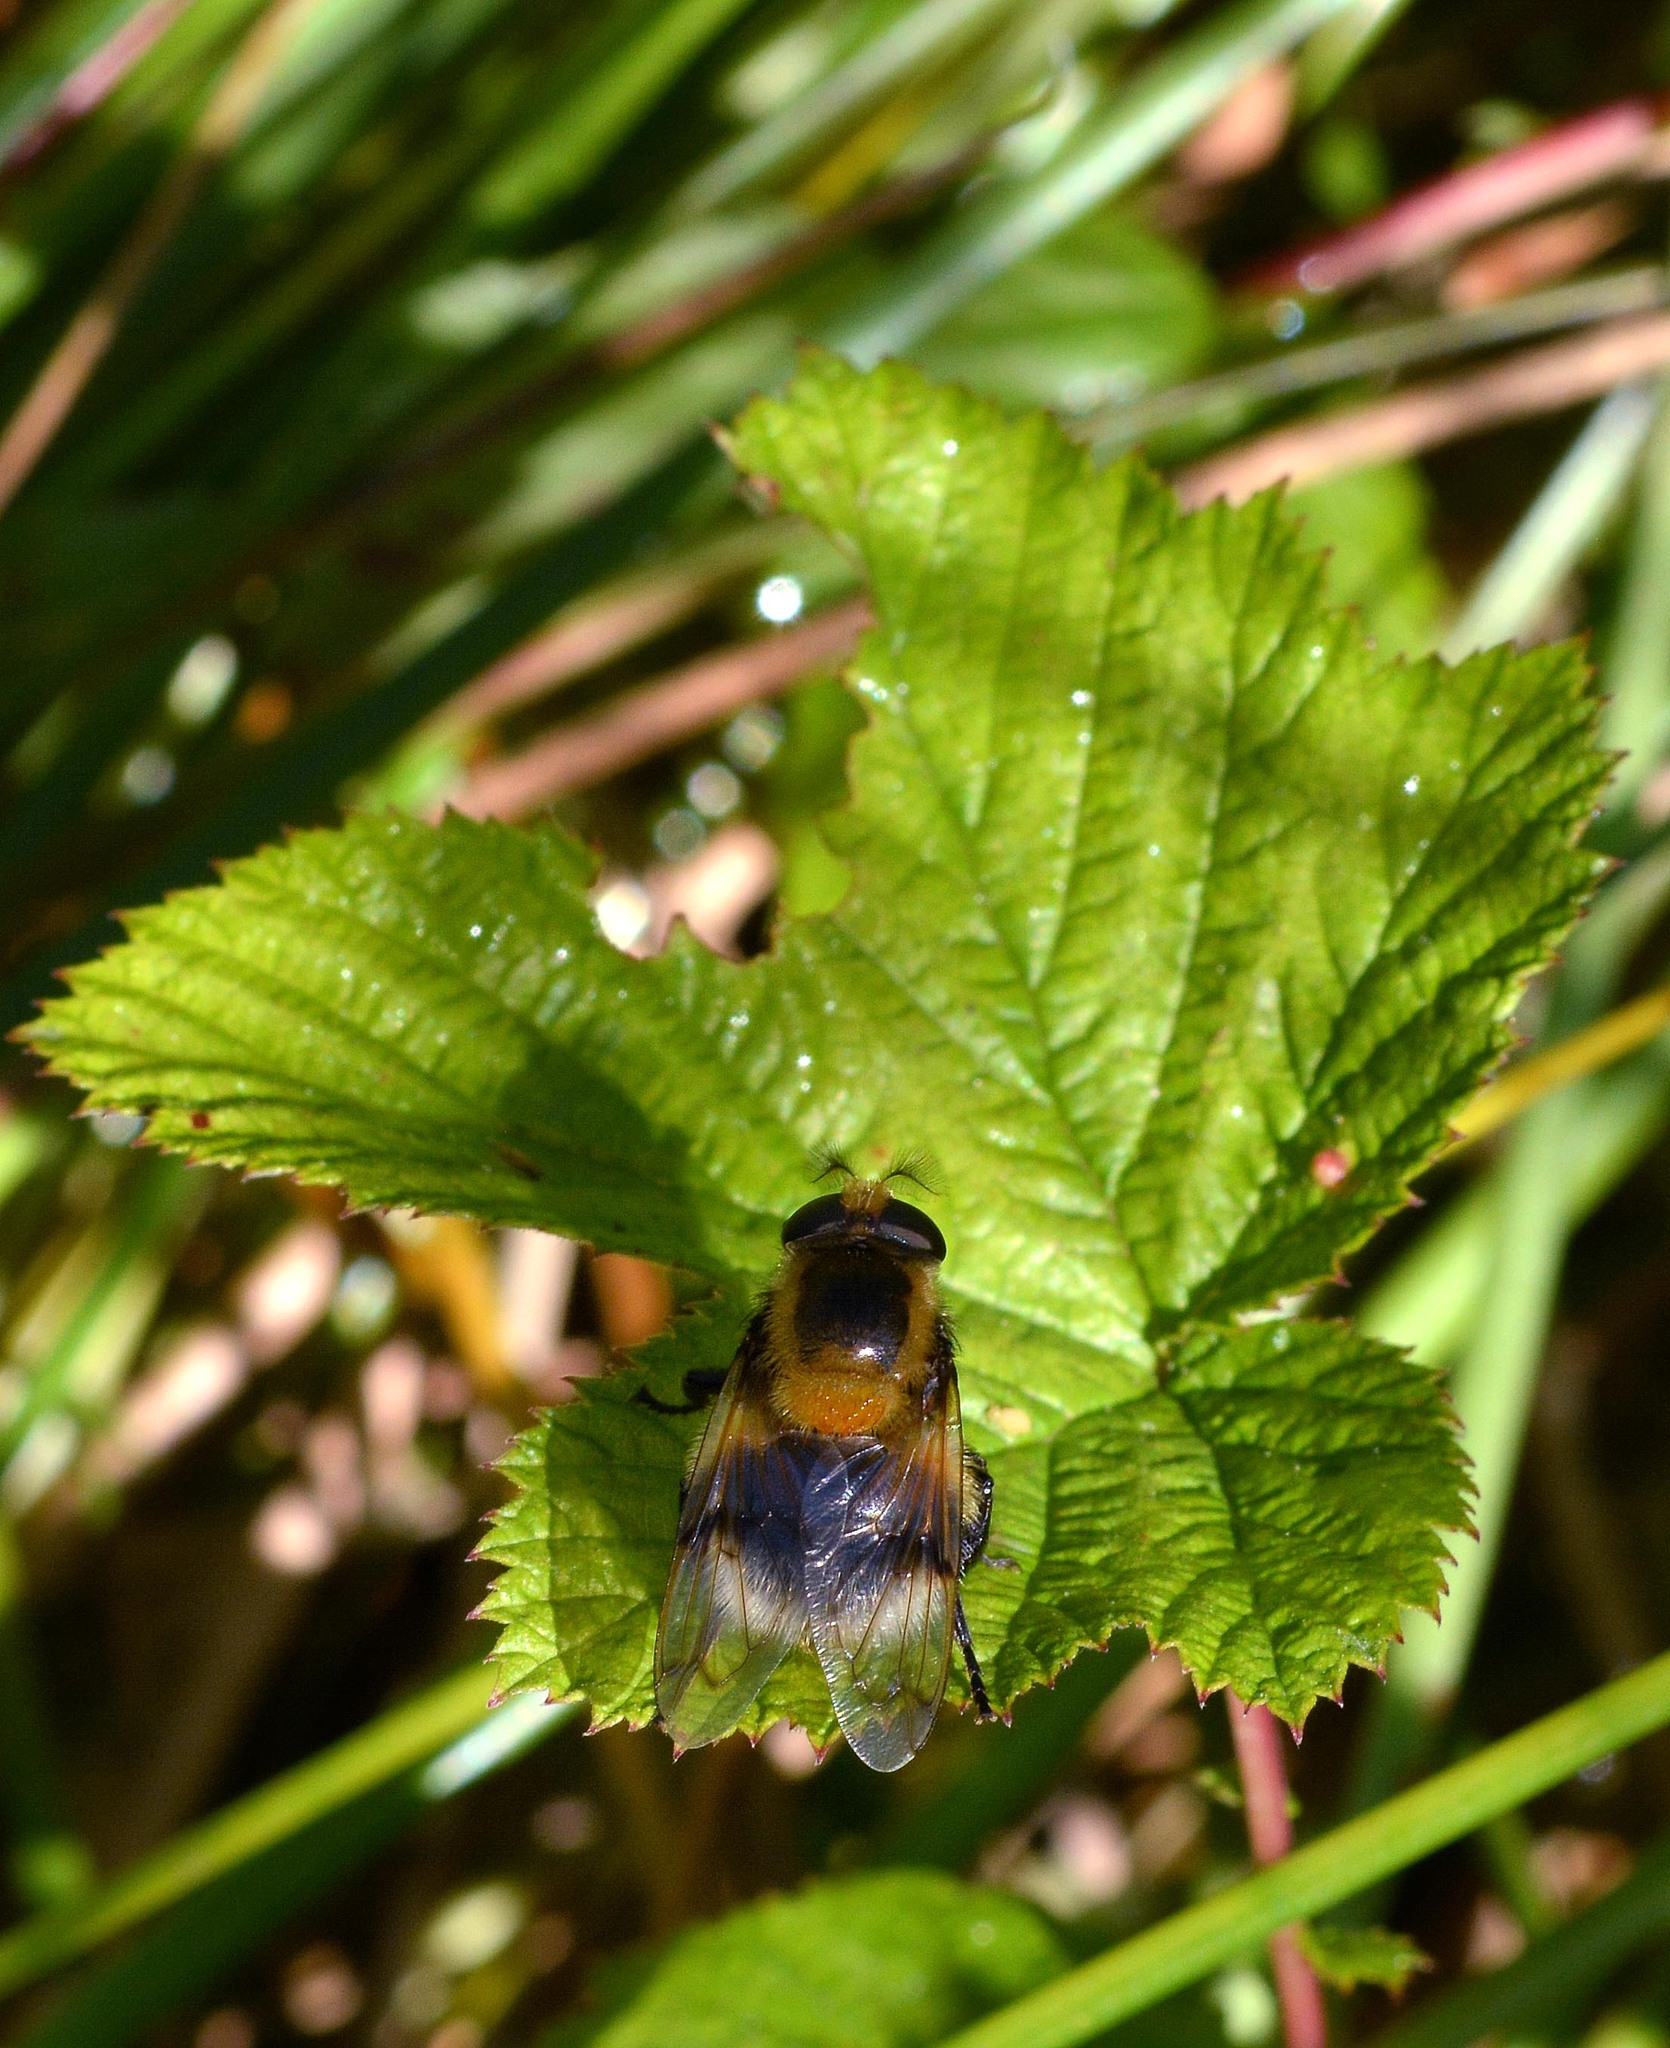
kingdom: Animalia
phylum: Arthropoda
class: Insecta
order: Diptera
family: Syrphidae
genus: Volucella
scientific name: Volucella bombylans
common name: Bumble bee hover fly
